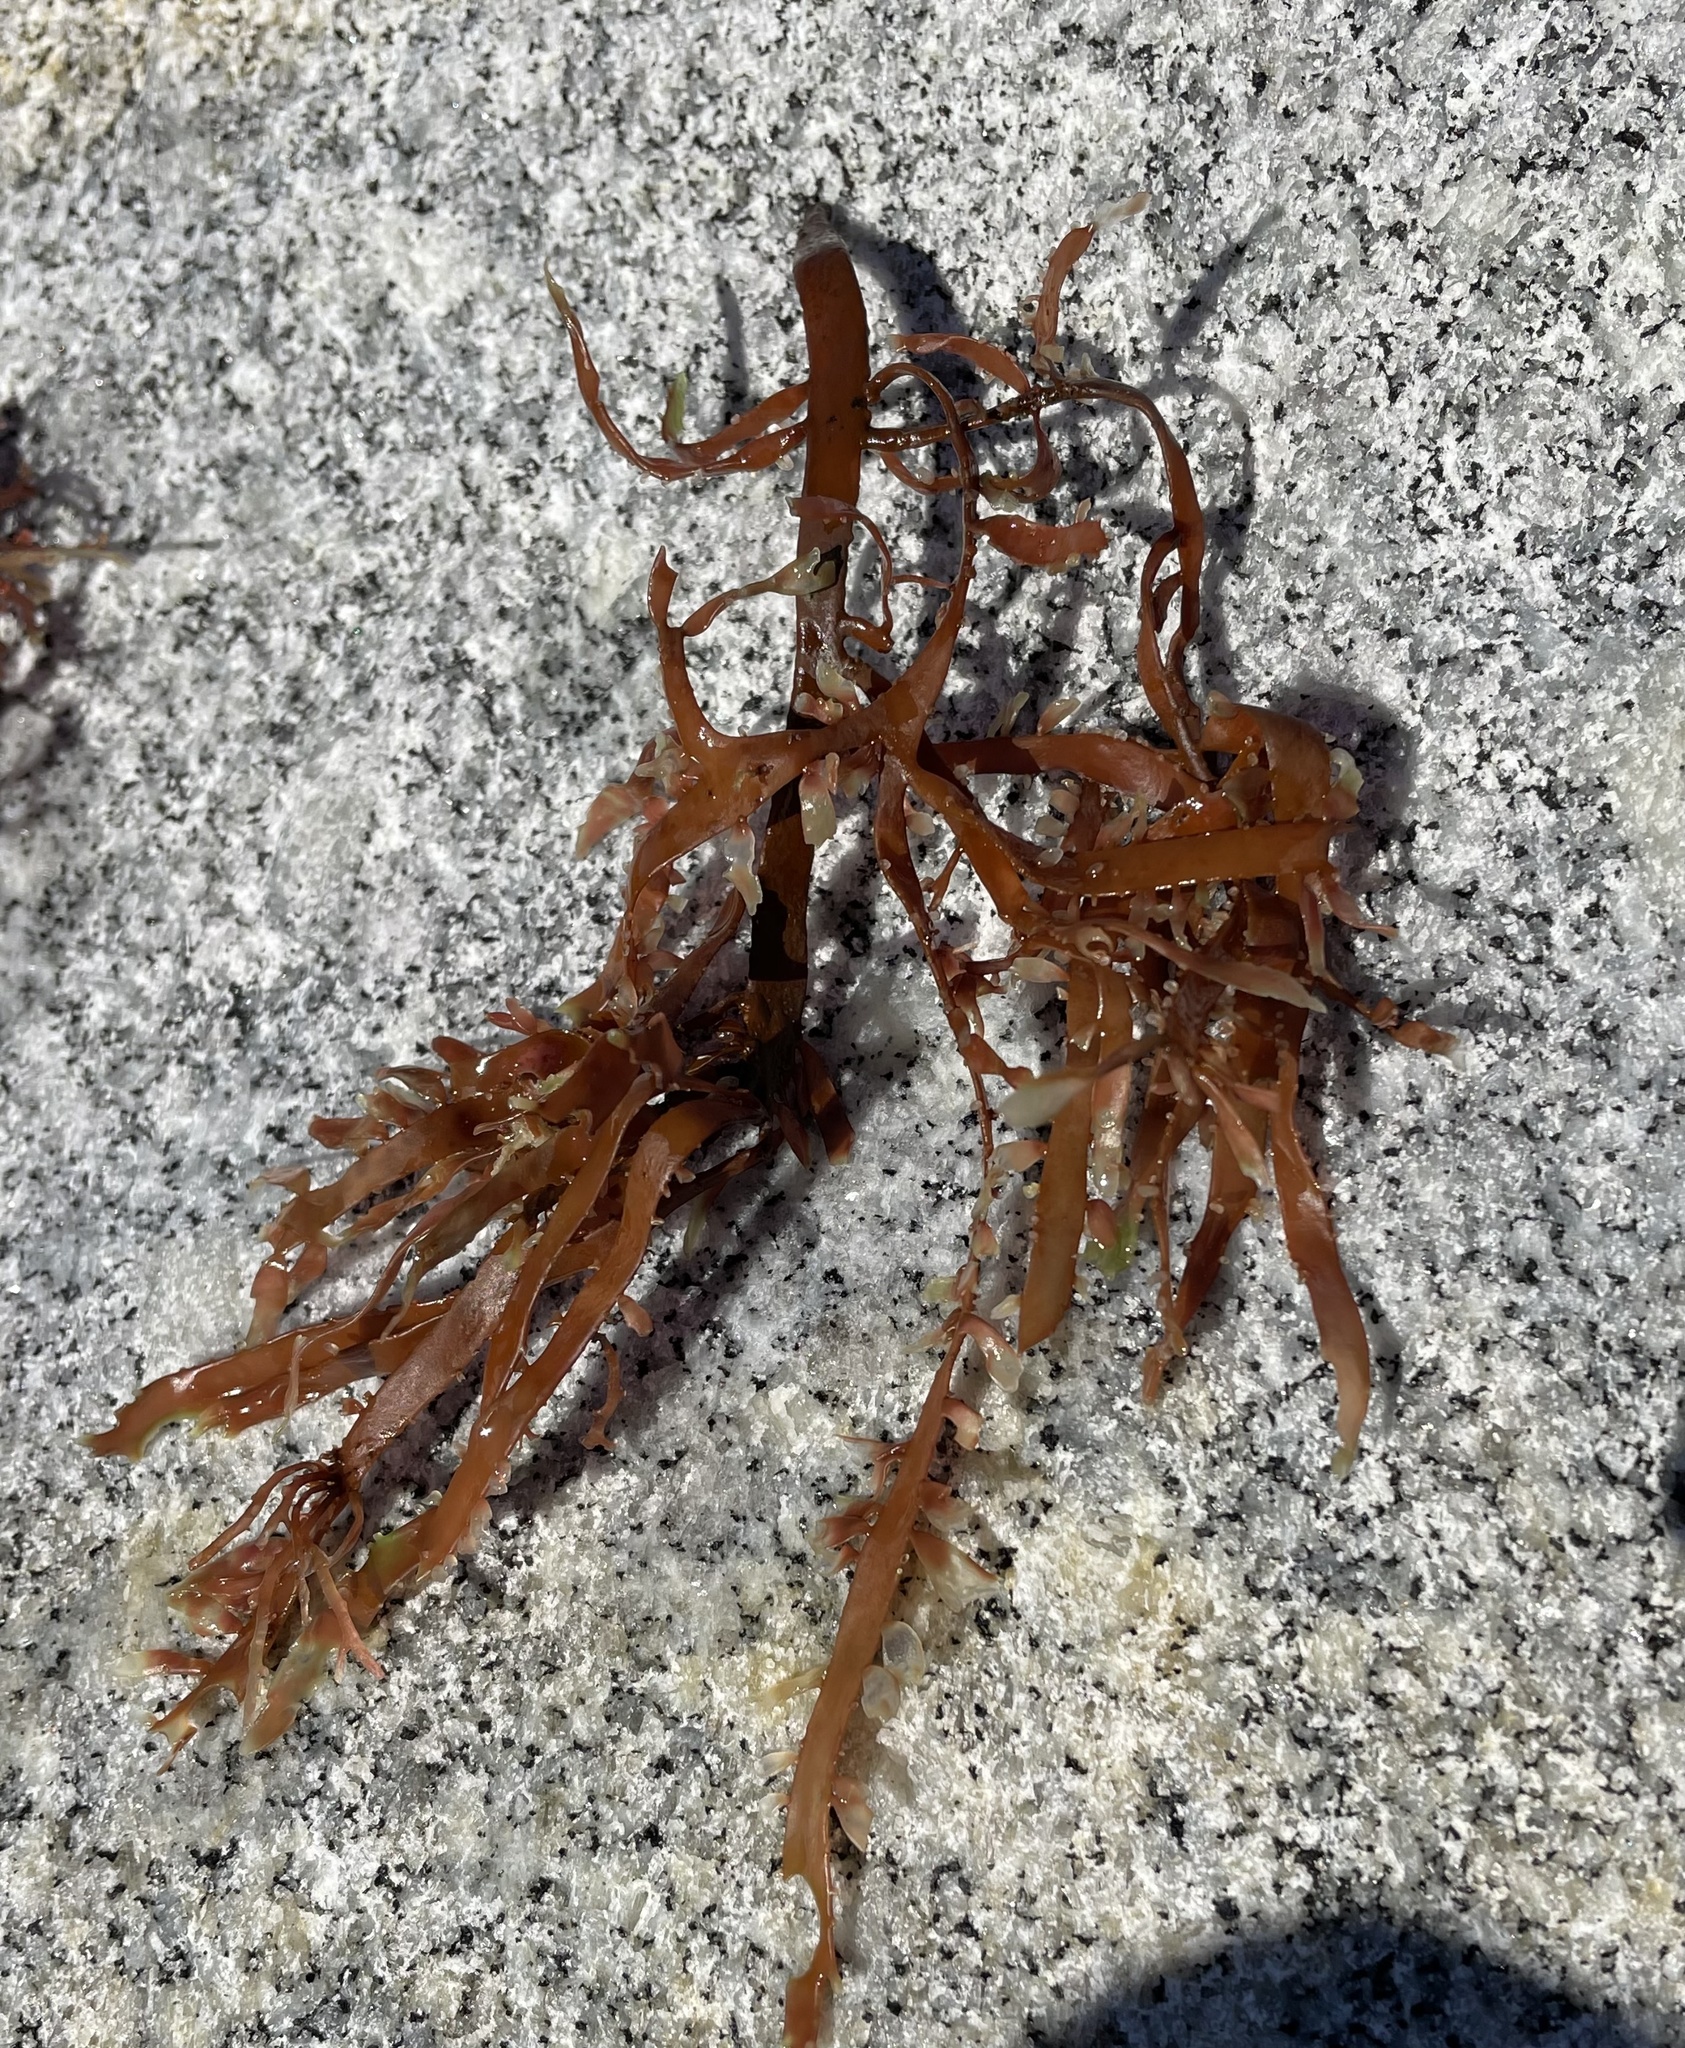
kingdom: Plantae
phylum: Rhodophyta
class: Florideophyceae
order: Halymeniales
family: Halymeniaceae
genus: Grateloupia
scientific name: Grateloupia Prionitis lanceolata
